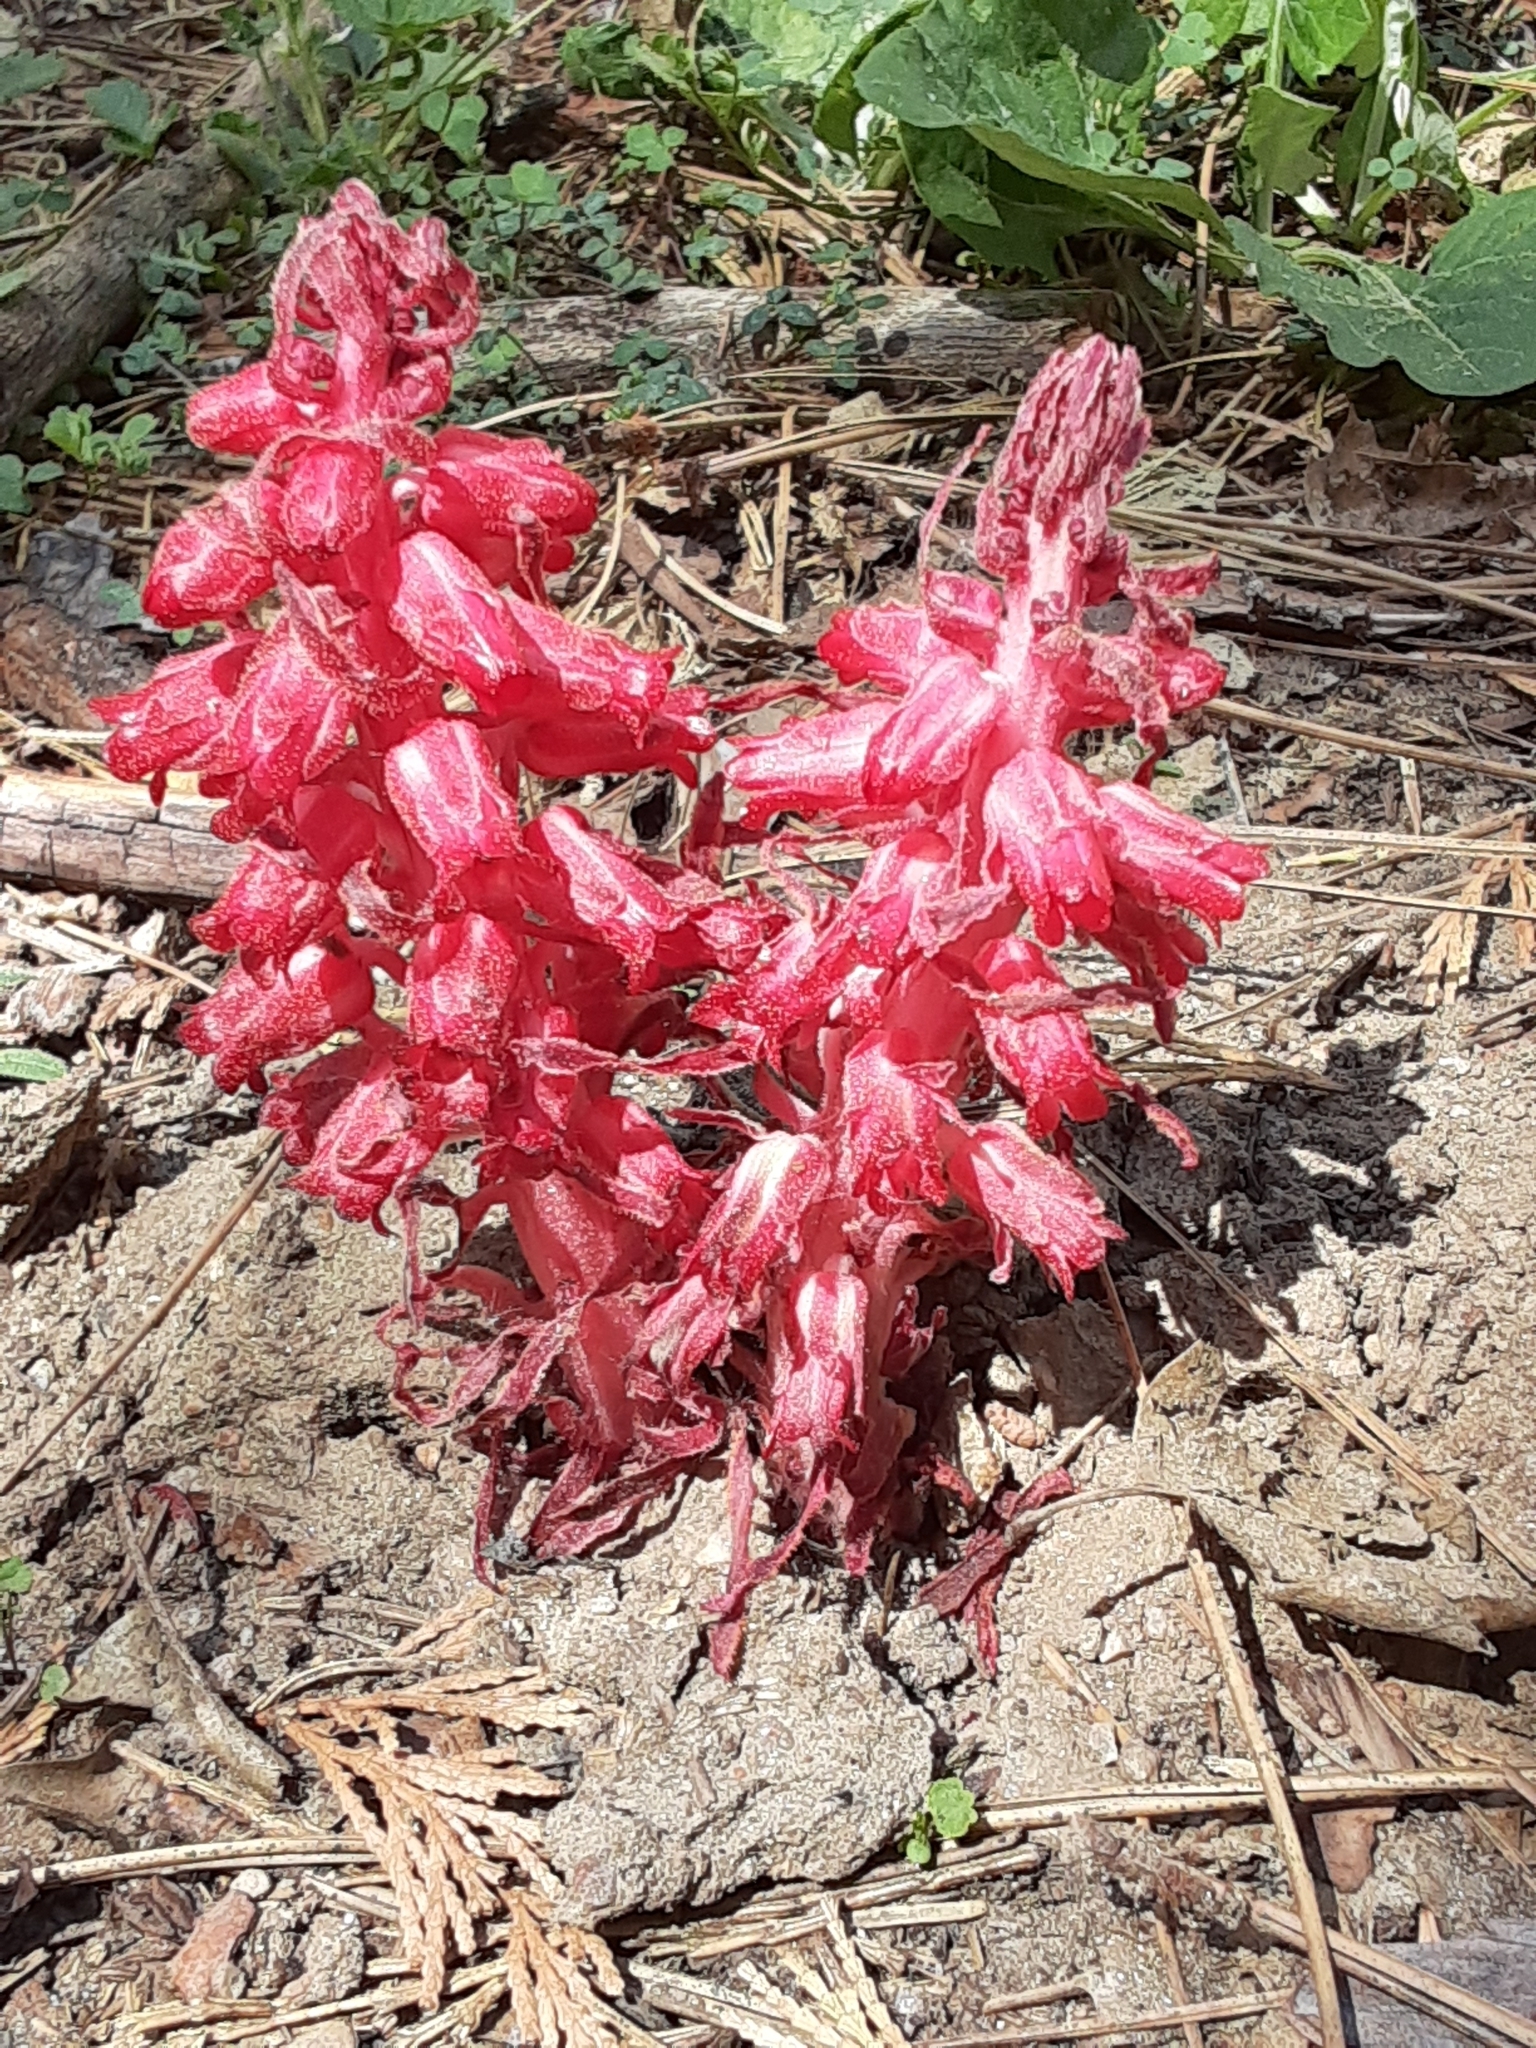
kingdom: Plantae
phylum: Tracheophyta
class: Magnoliopsida
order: Ericales
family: Ericaceae
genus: Sarcodes
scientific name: Sarcodes sanguinea
